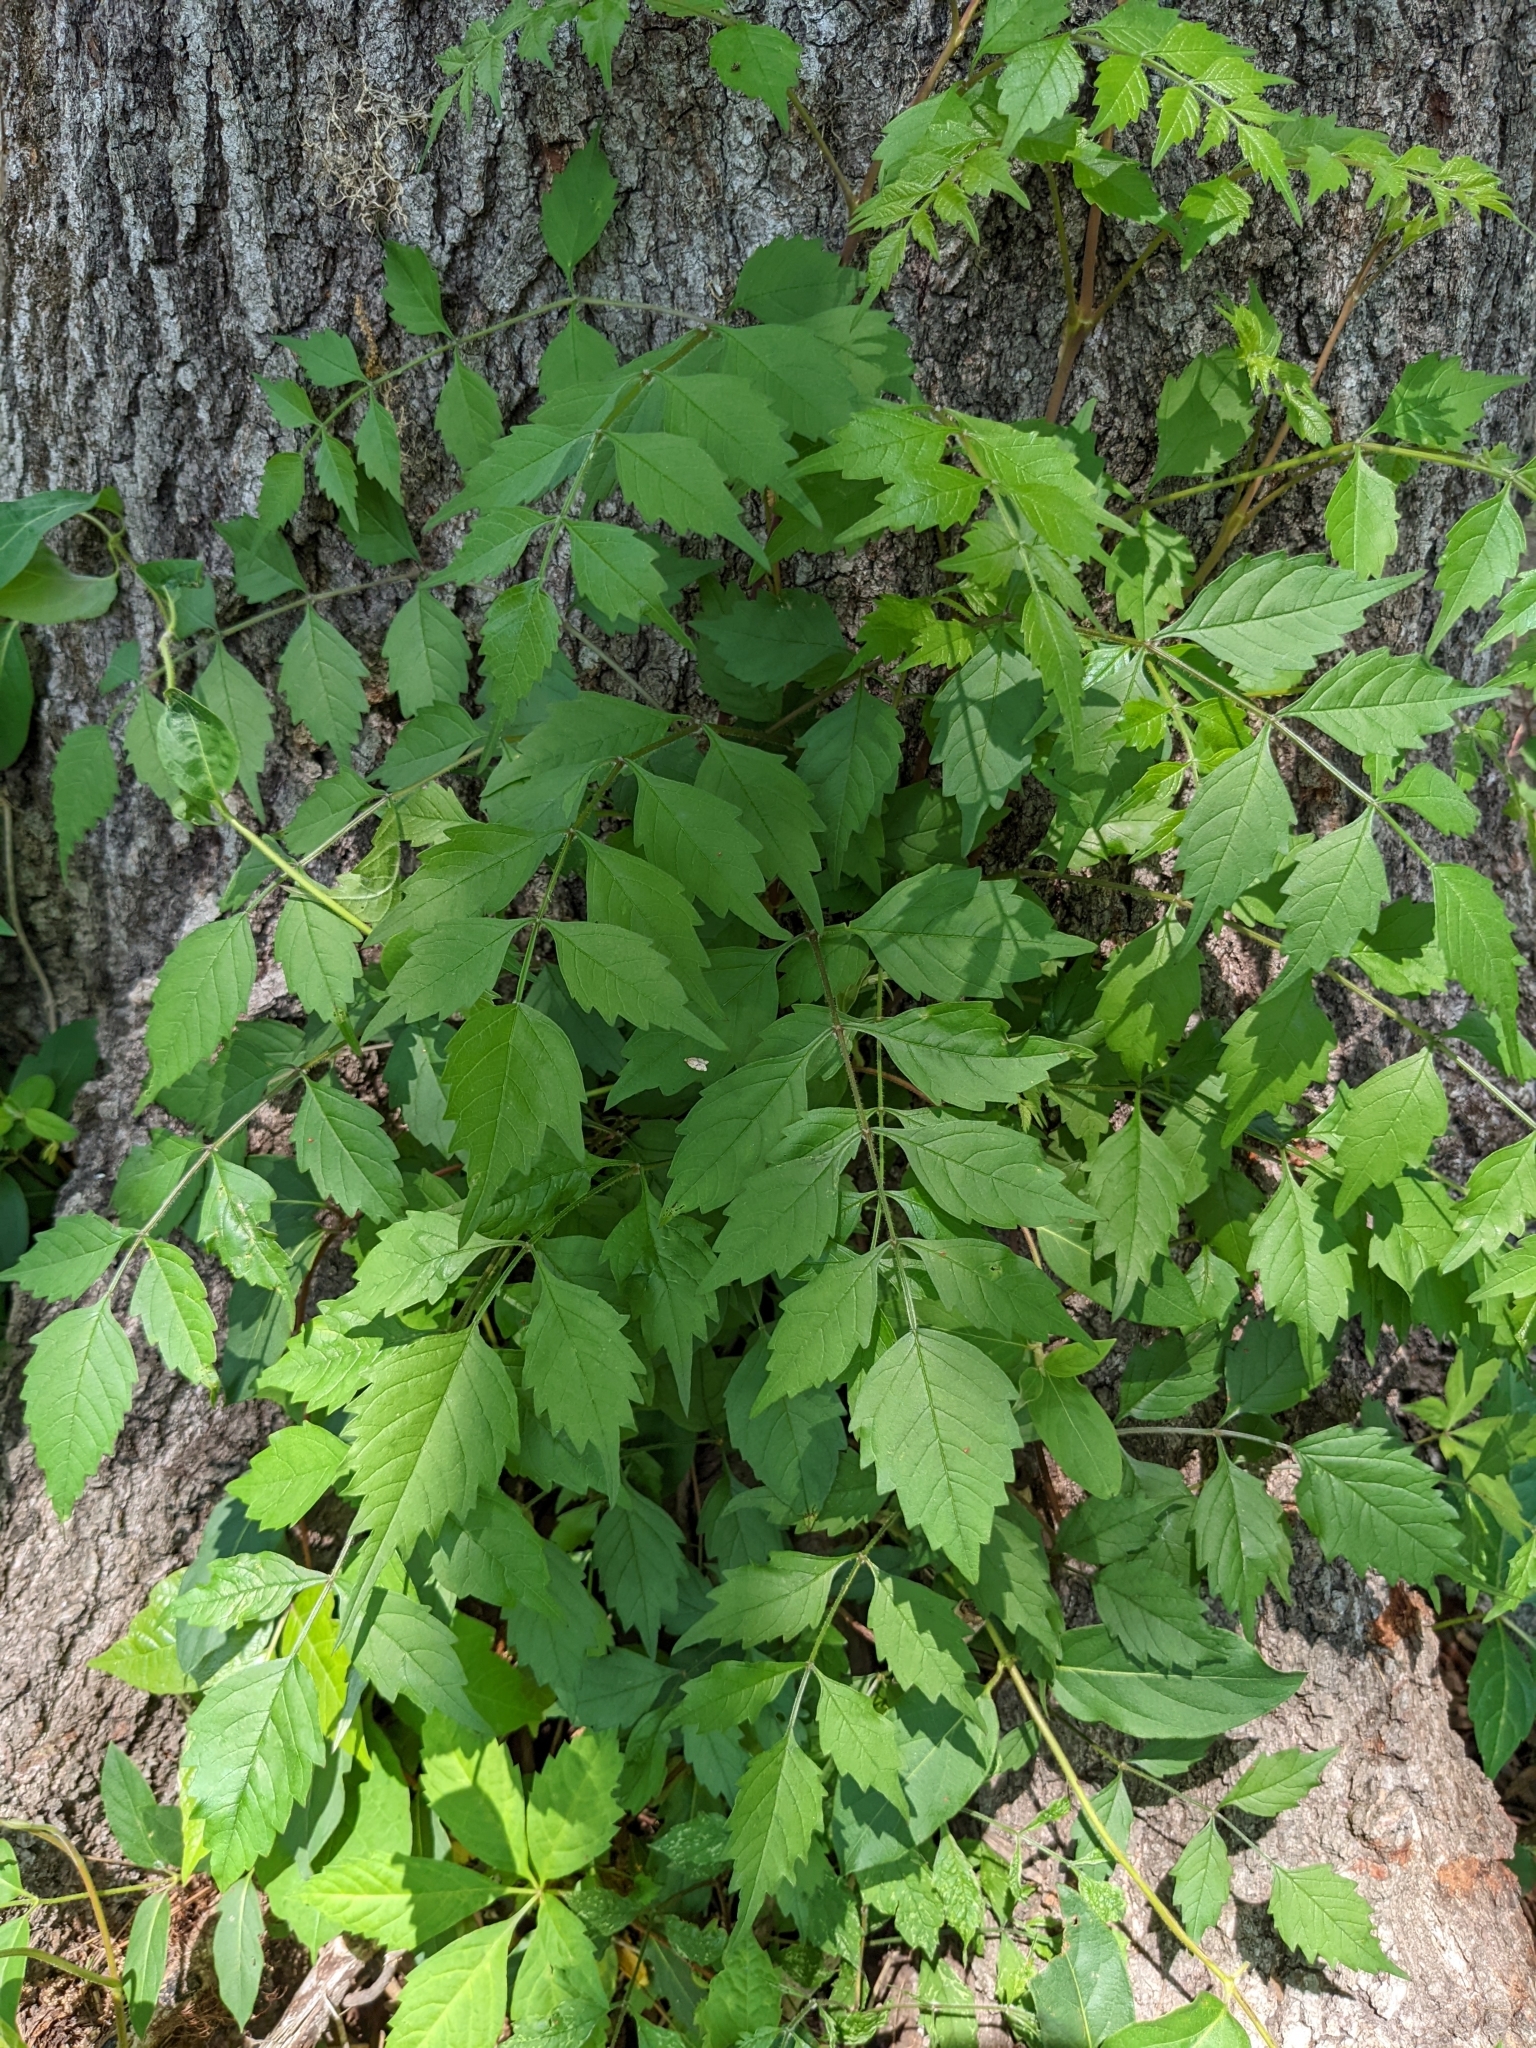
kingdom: Plantae
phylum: Tracheophyta
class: Magnoliopsida
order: Lamiales
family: Bignoniaceae
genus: Campsis
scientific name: Campsis radicans
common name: Trumpet-creeper
